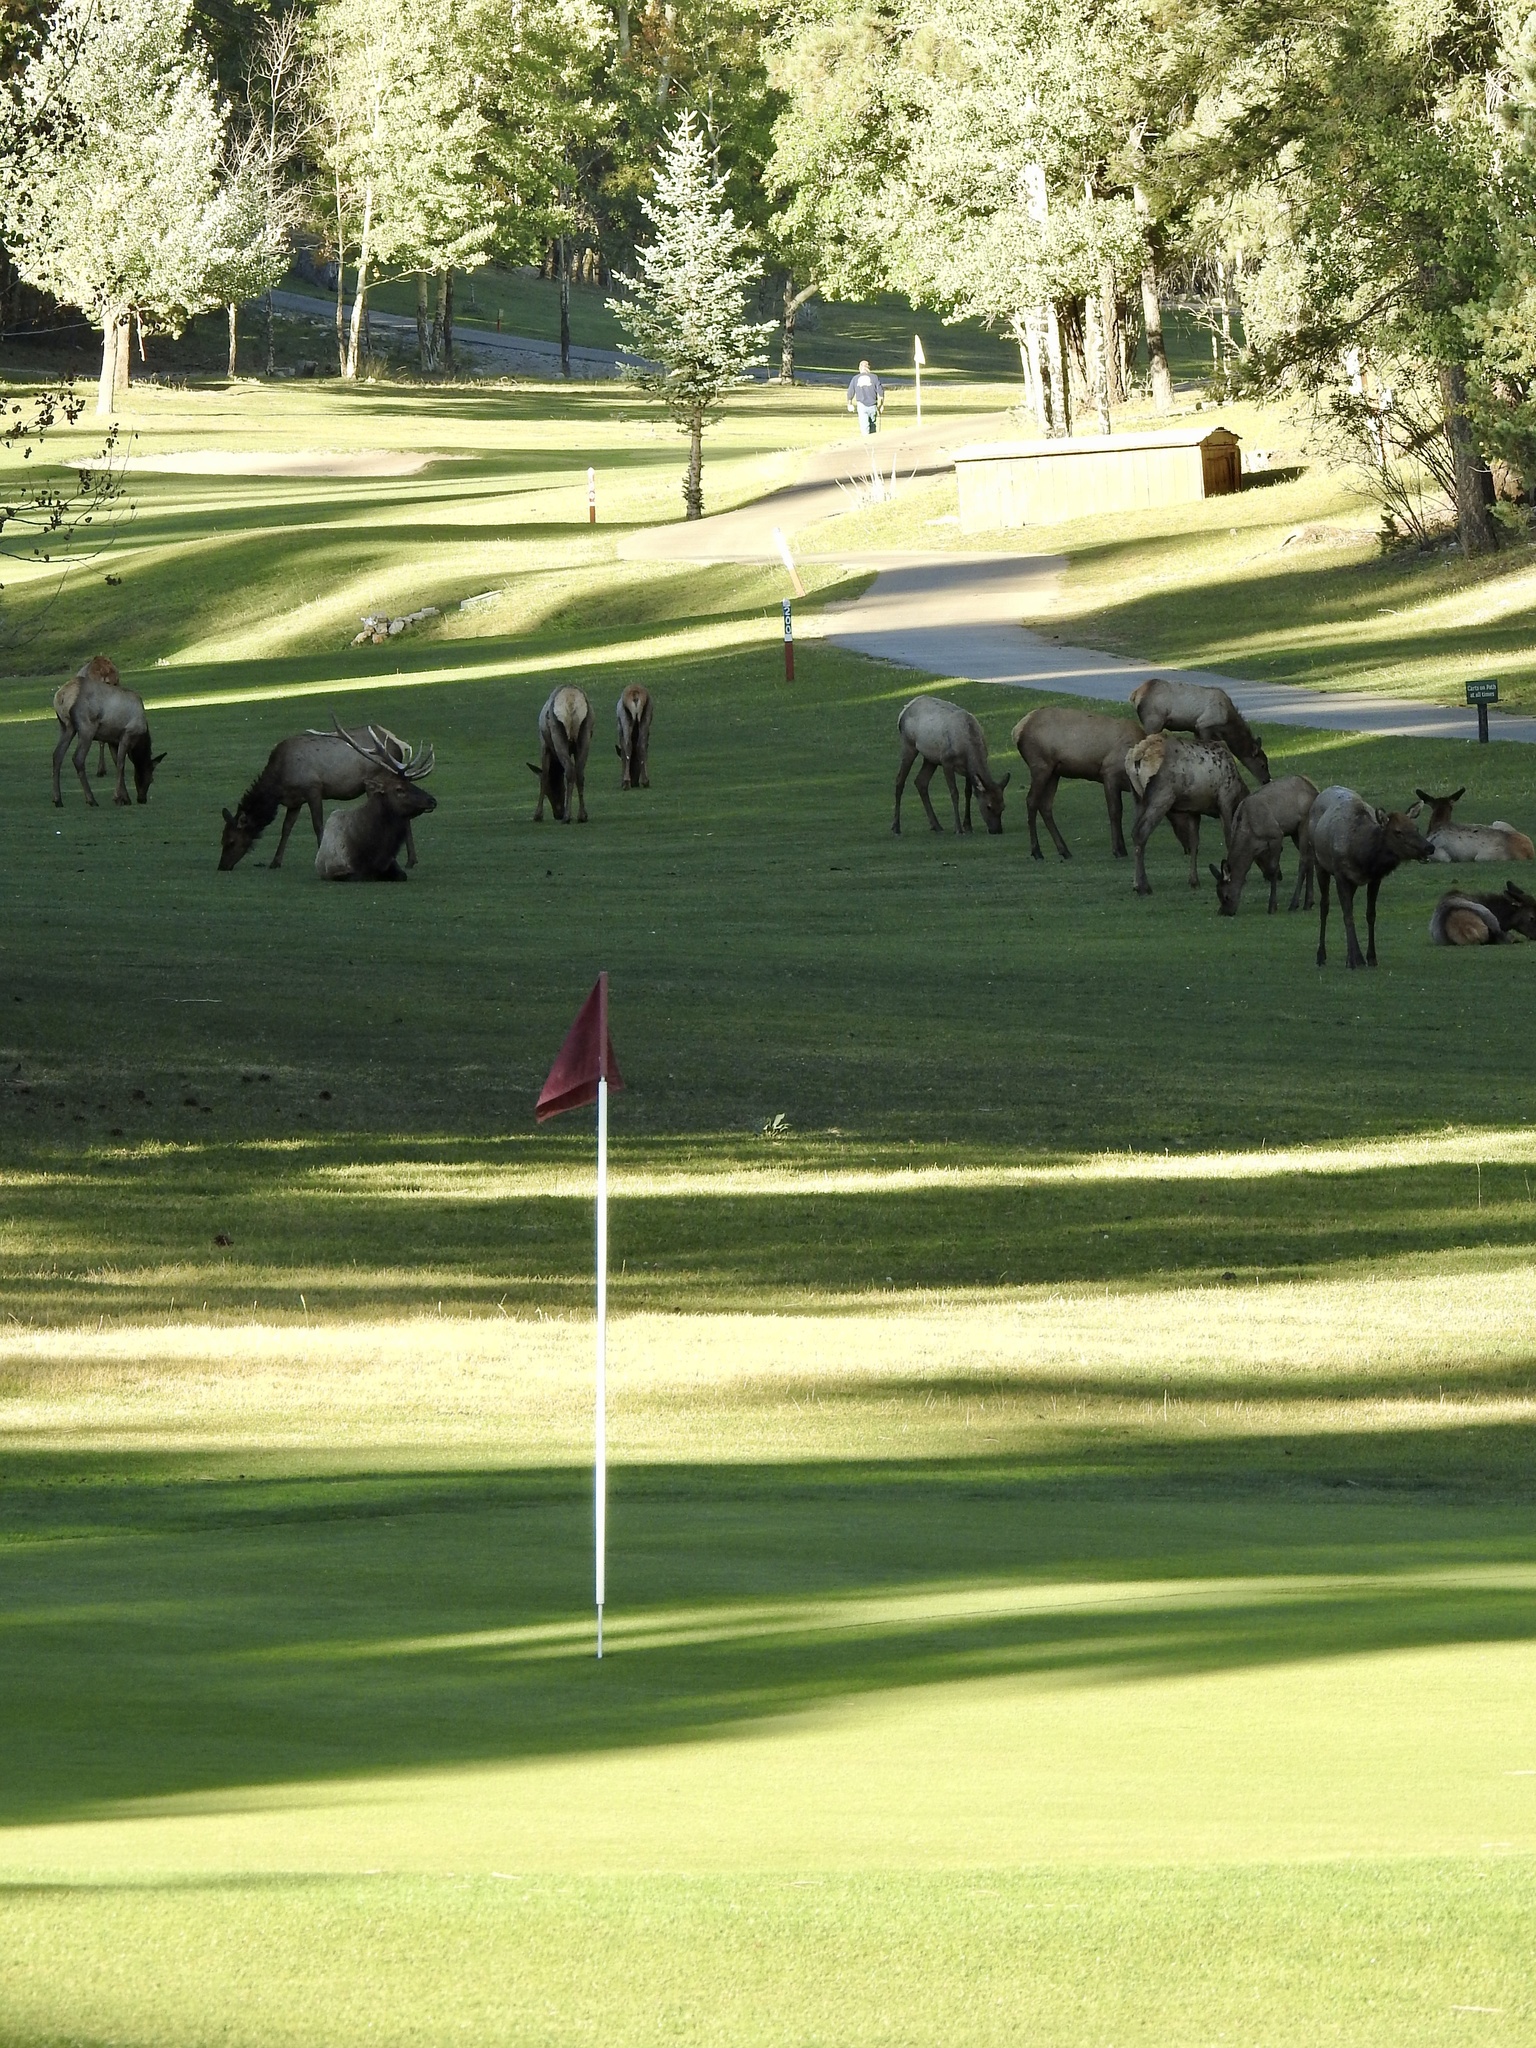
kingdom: Animalia
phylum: Chordata
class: Mammalia
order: Artiodactyla
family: Cervidae
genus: Cervus
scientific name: Cervus elaphus
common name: Red deer
